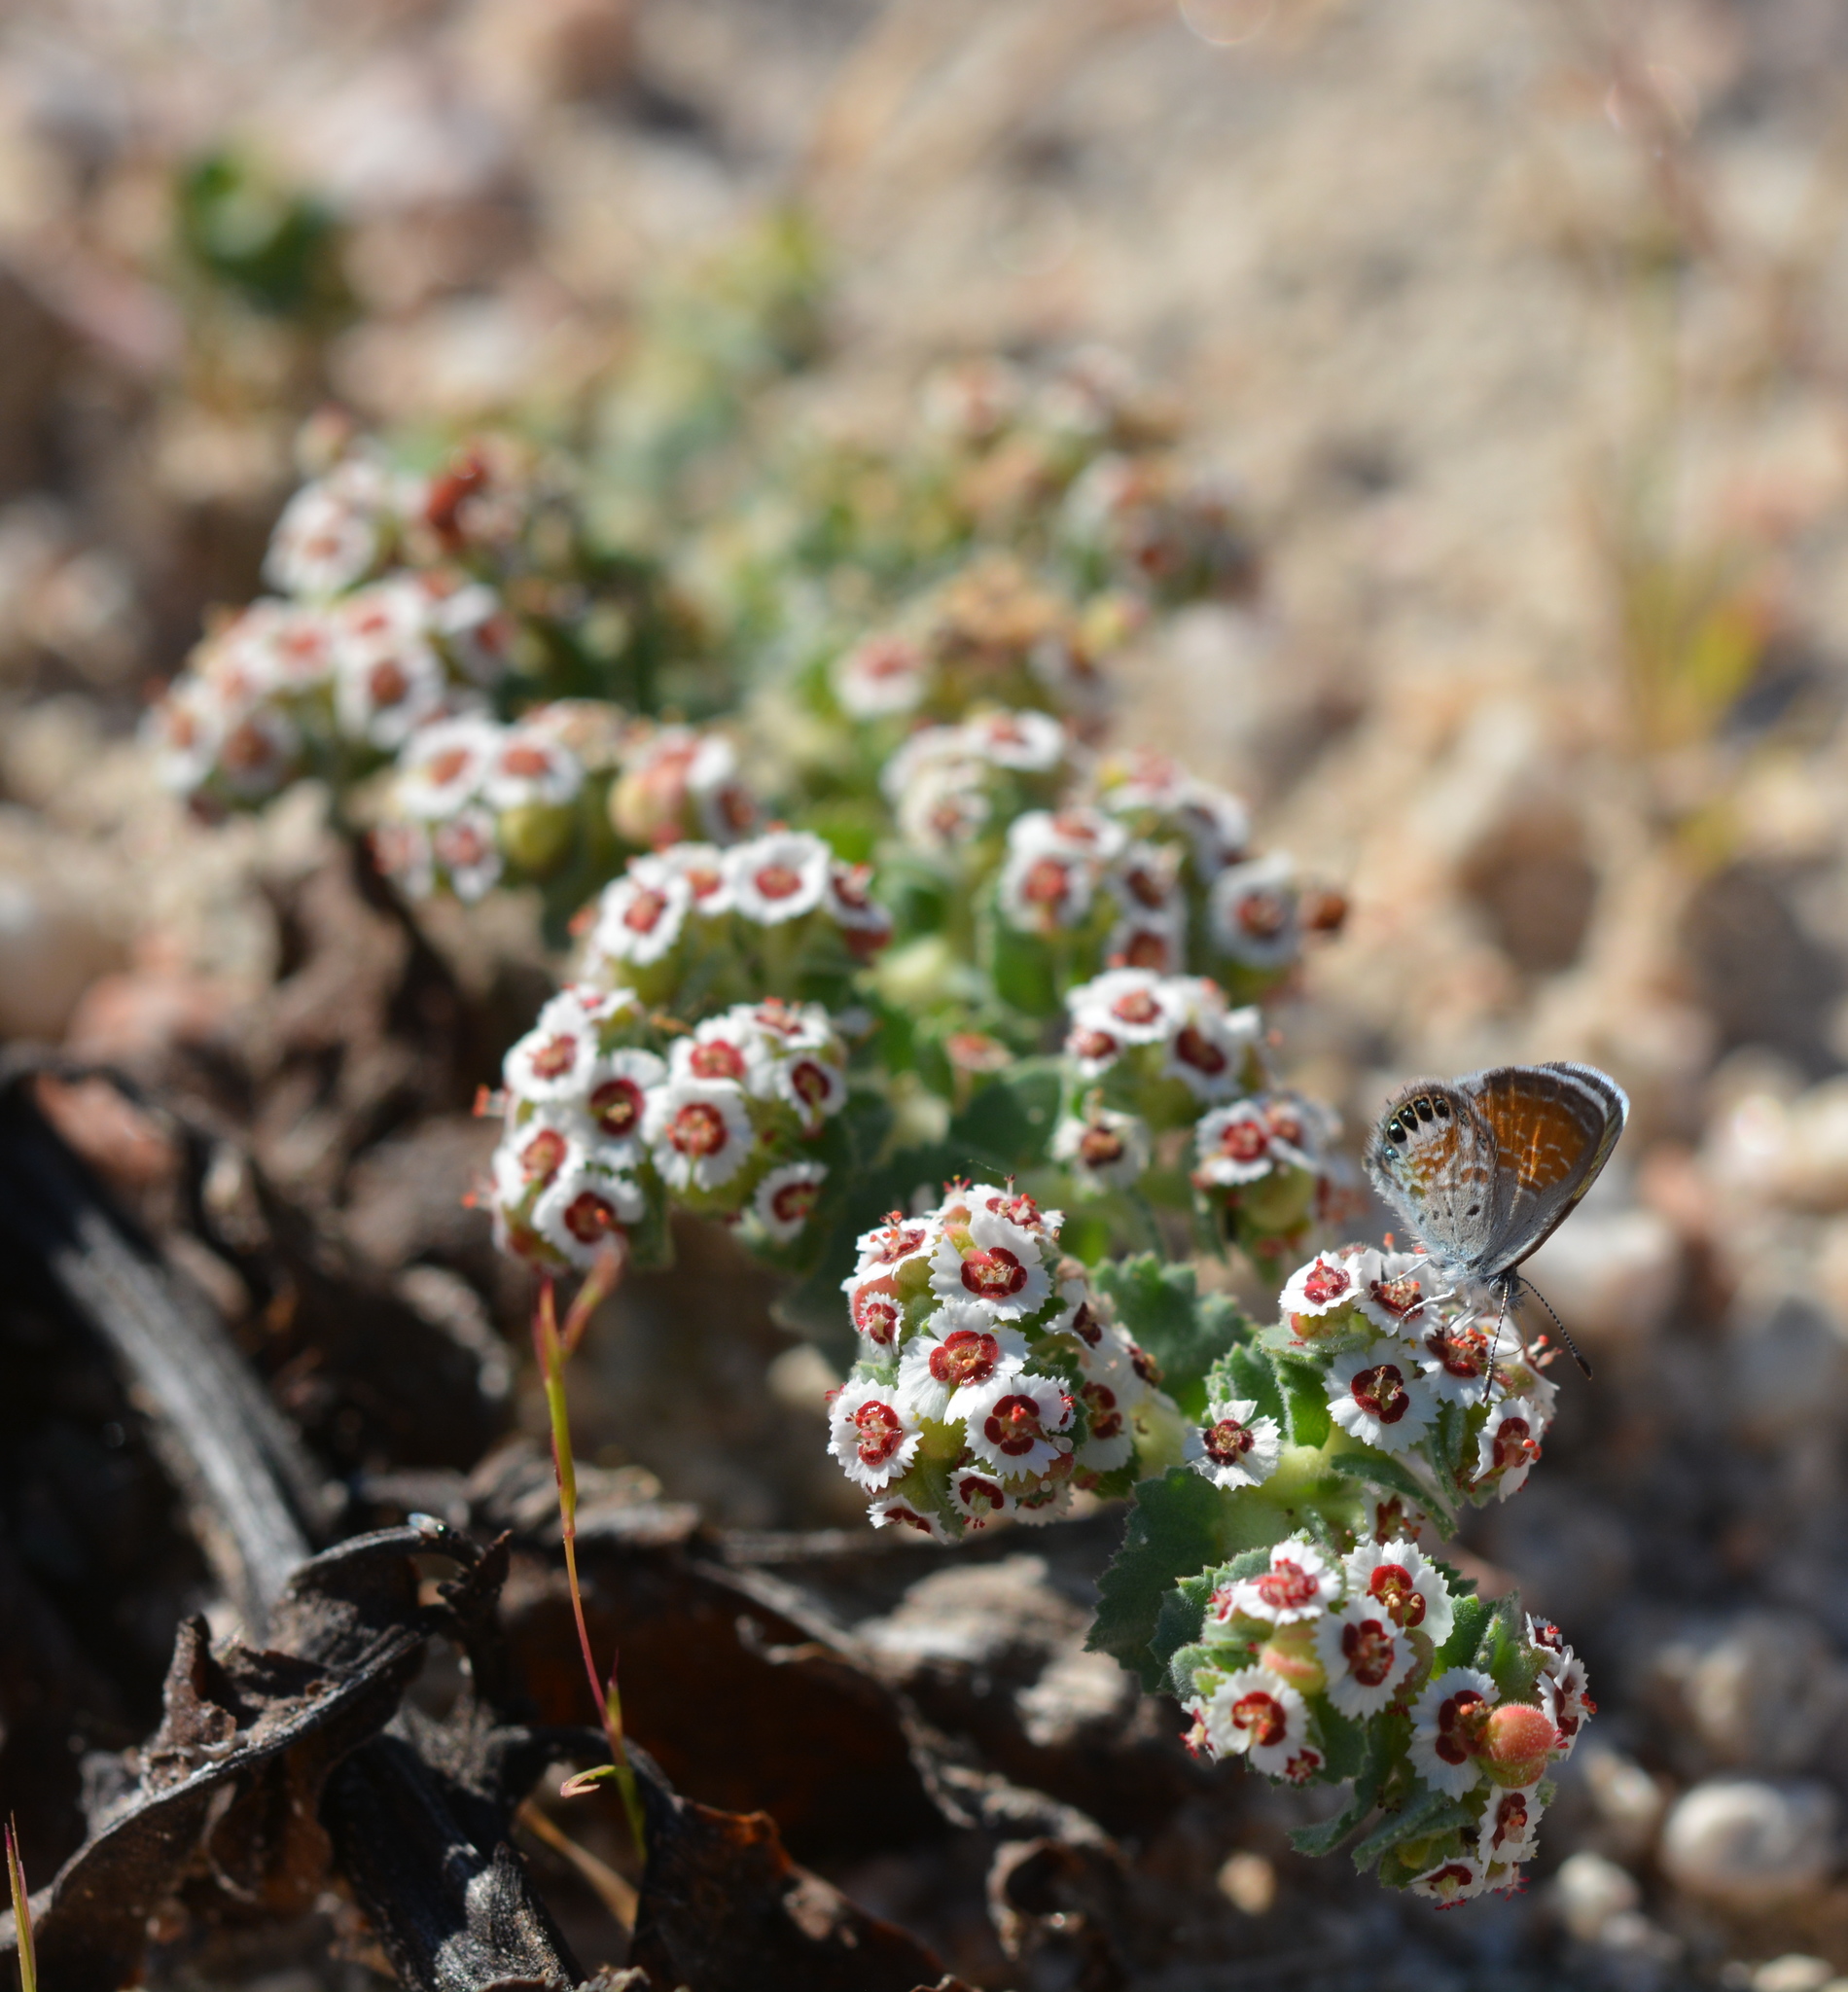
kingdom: Plantae
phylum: Tracheophyta
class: Magnoliopsida
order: Malpighiales
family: Euphorbiaceae
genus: Euphorbia
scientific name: Euphorbia leucophylla
